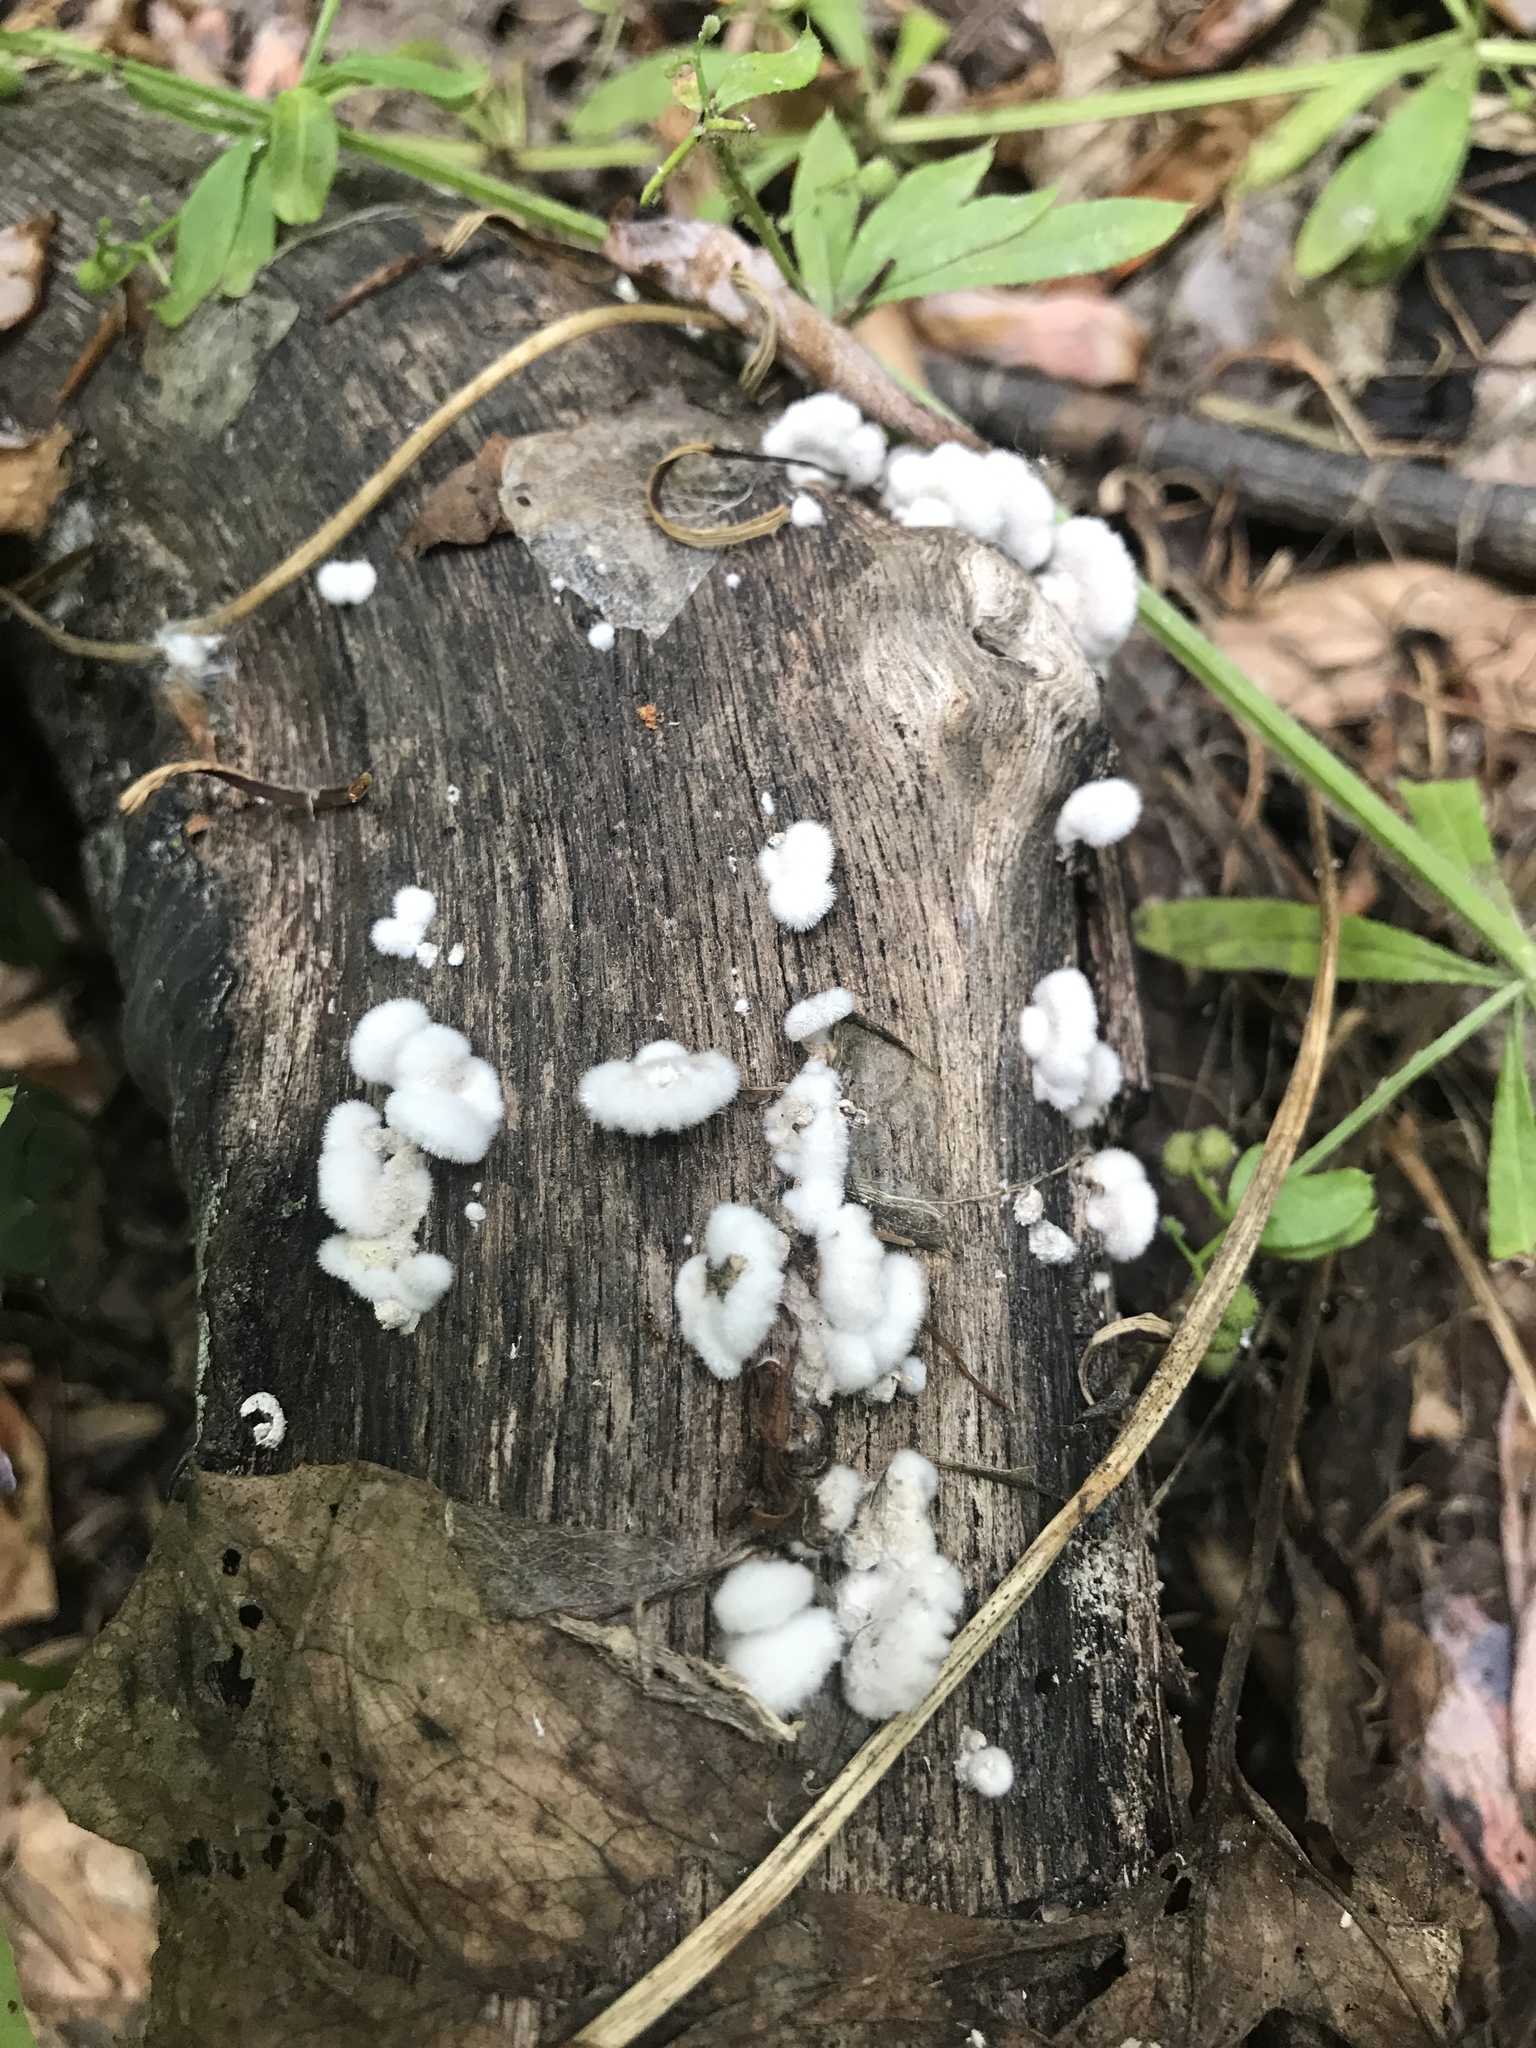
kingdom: Fungi
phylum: Basidiomycota
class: Agaricomycetes
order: Agaricales
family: Schizophyllaceae
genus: Schizophyllum
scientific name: Schizophyllum commune
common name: Common porecrust
